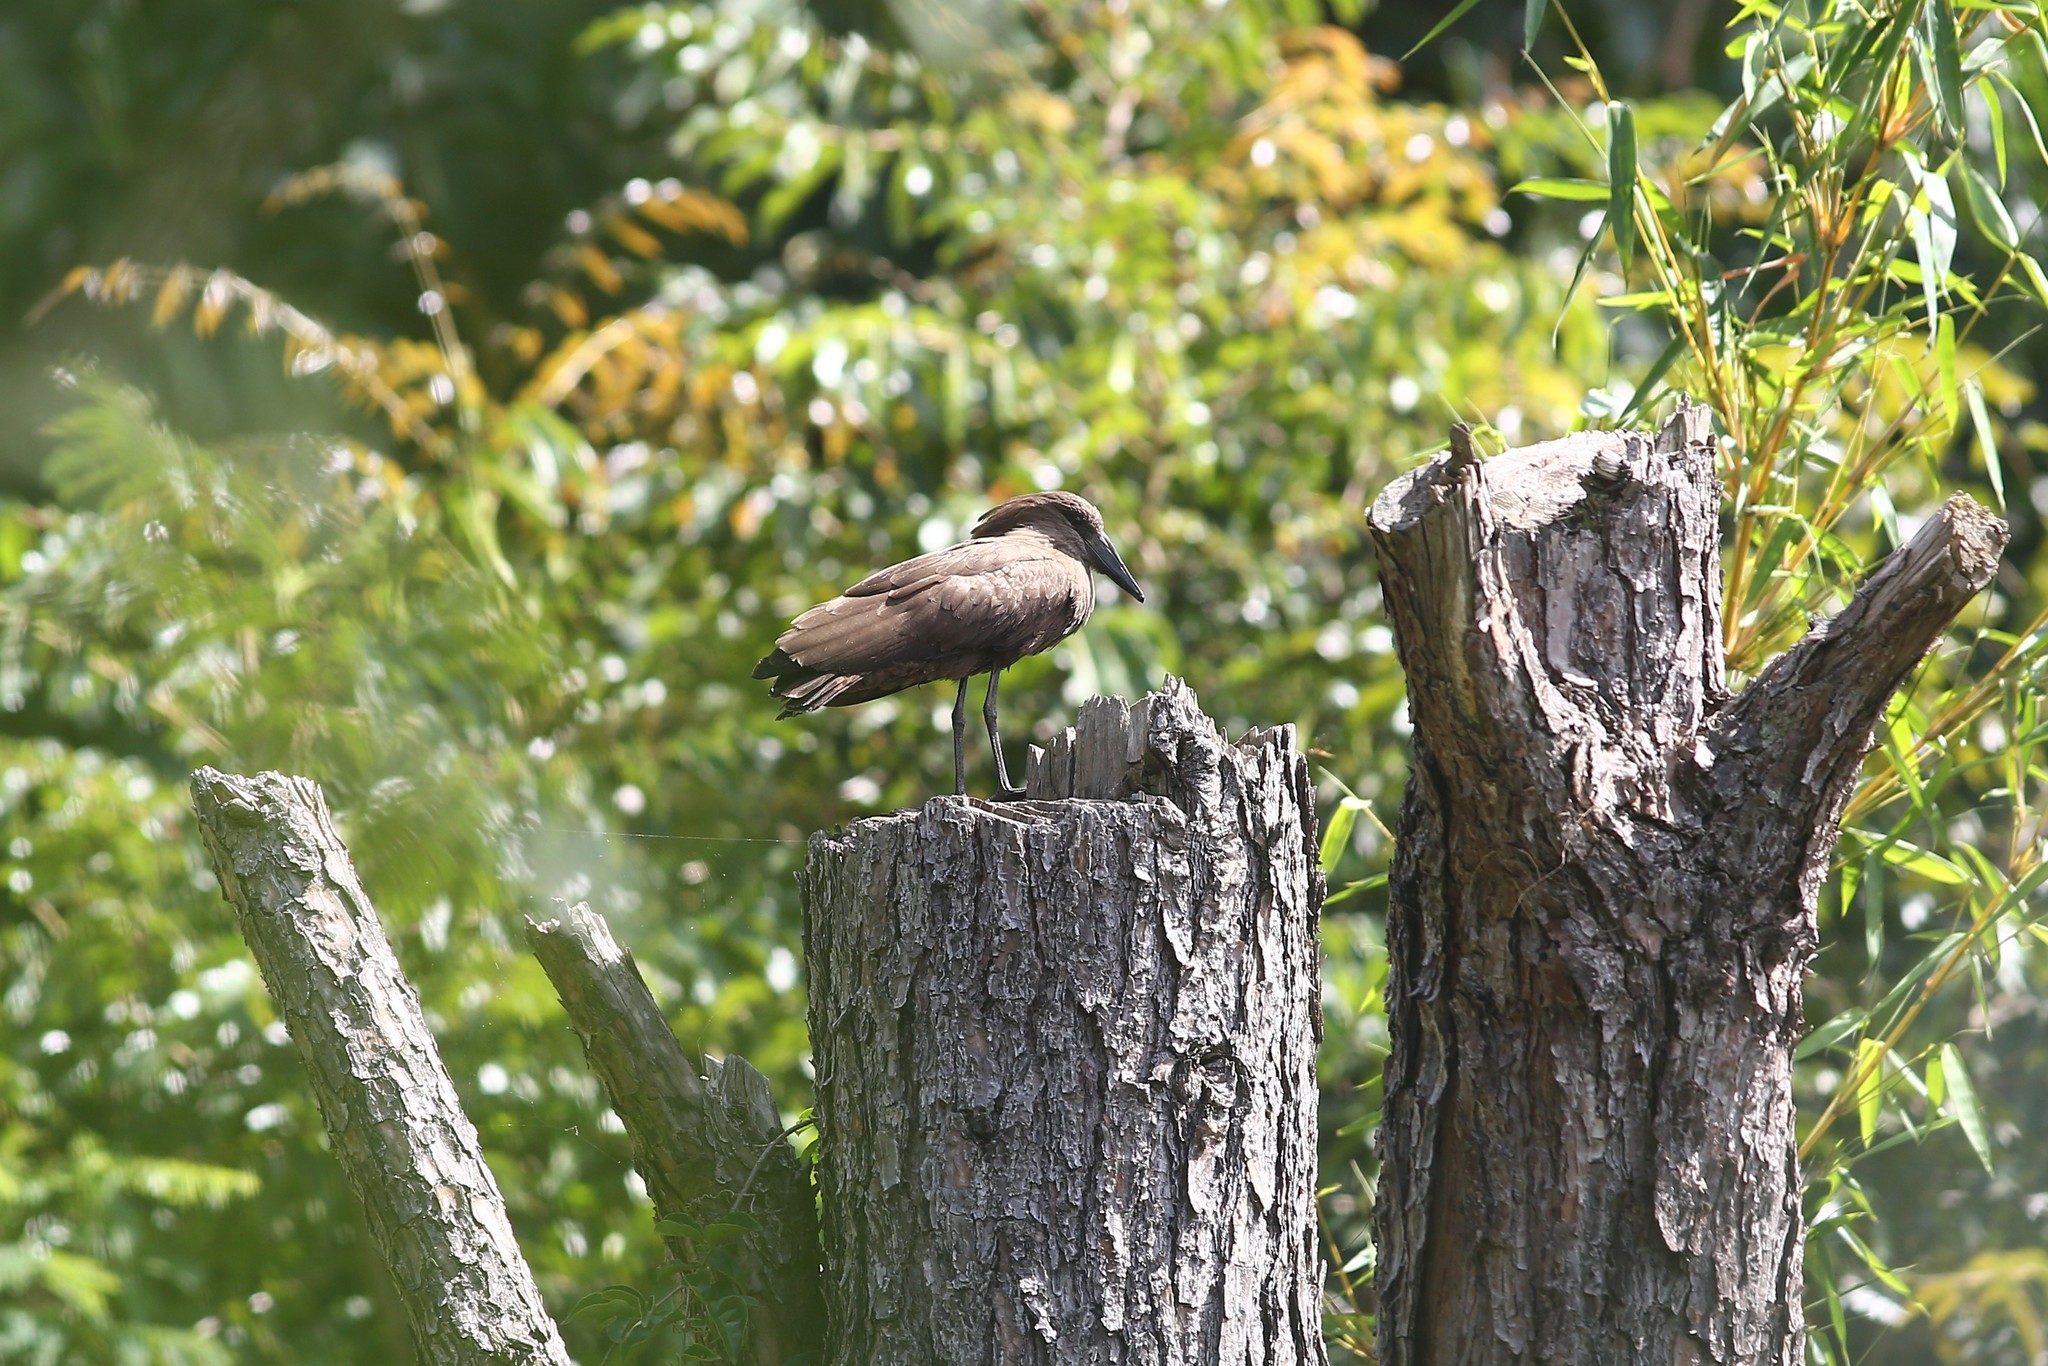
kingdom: Animalia
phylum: Chordata
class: Aves
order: Pelecaniformes
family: Scopidae
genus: Scopus
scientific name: Scopus umbretta
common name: Hamerkop
